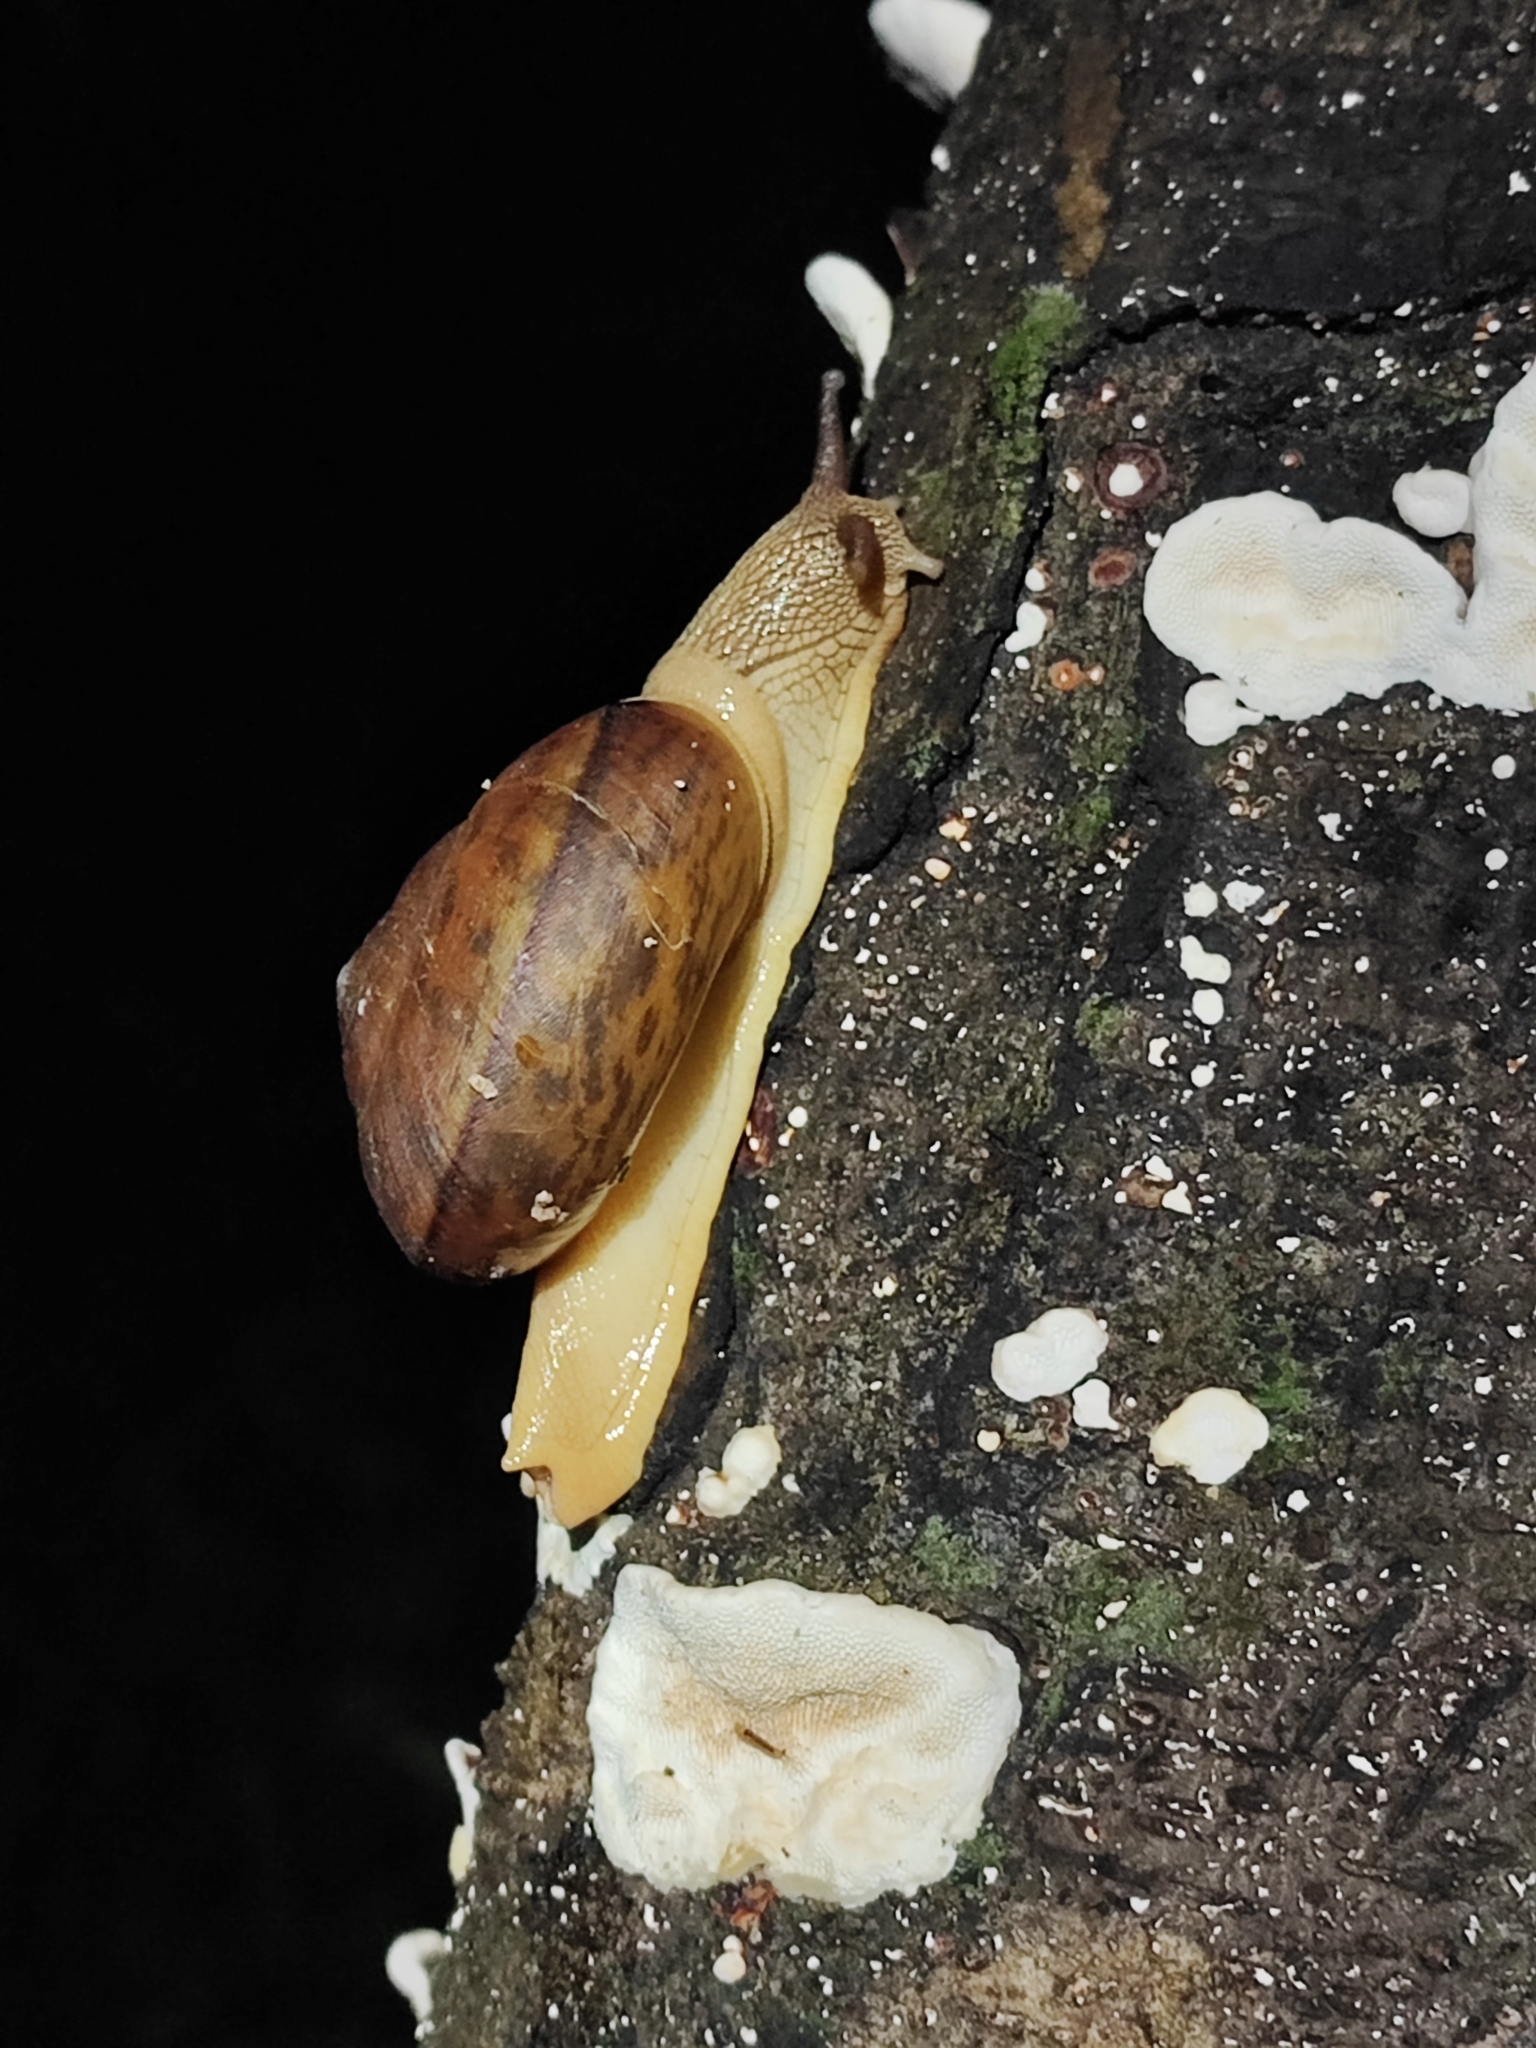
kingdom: Animalia
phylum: Mollusca
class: Gastropoda
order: Stylommatophora
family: Ariophantidae
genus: Hemiplecta
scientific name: Hemiplecta salangana
